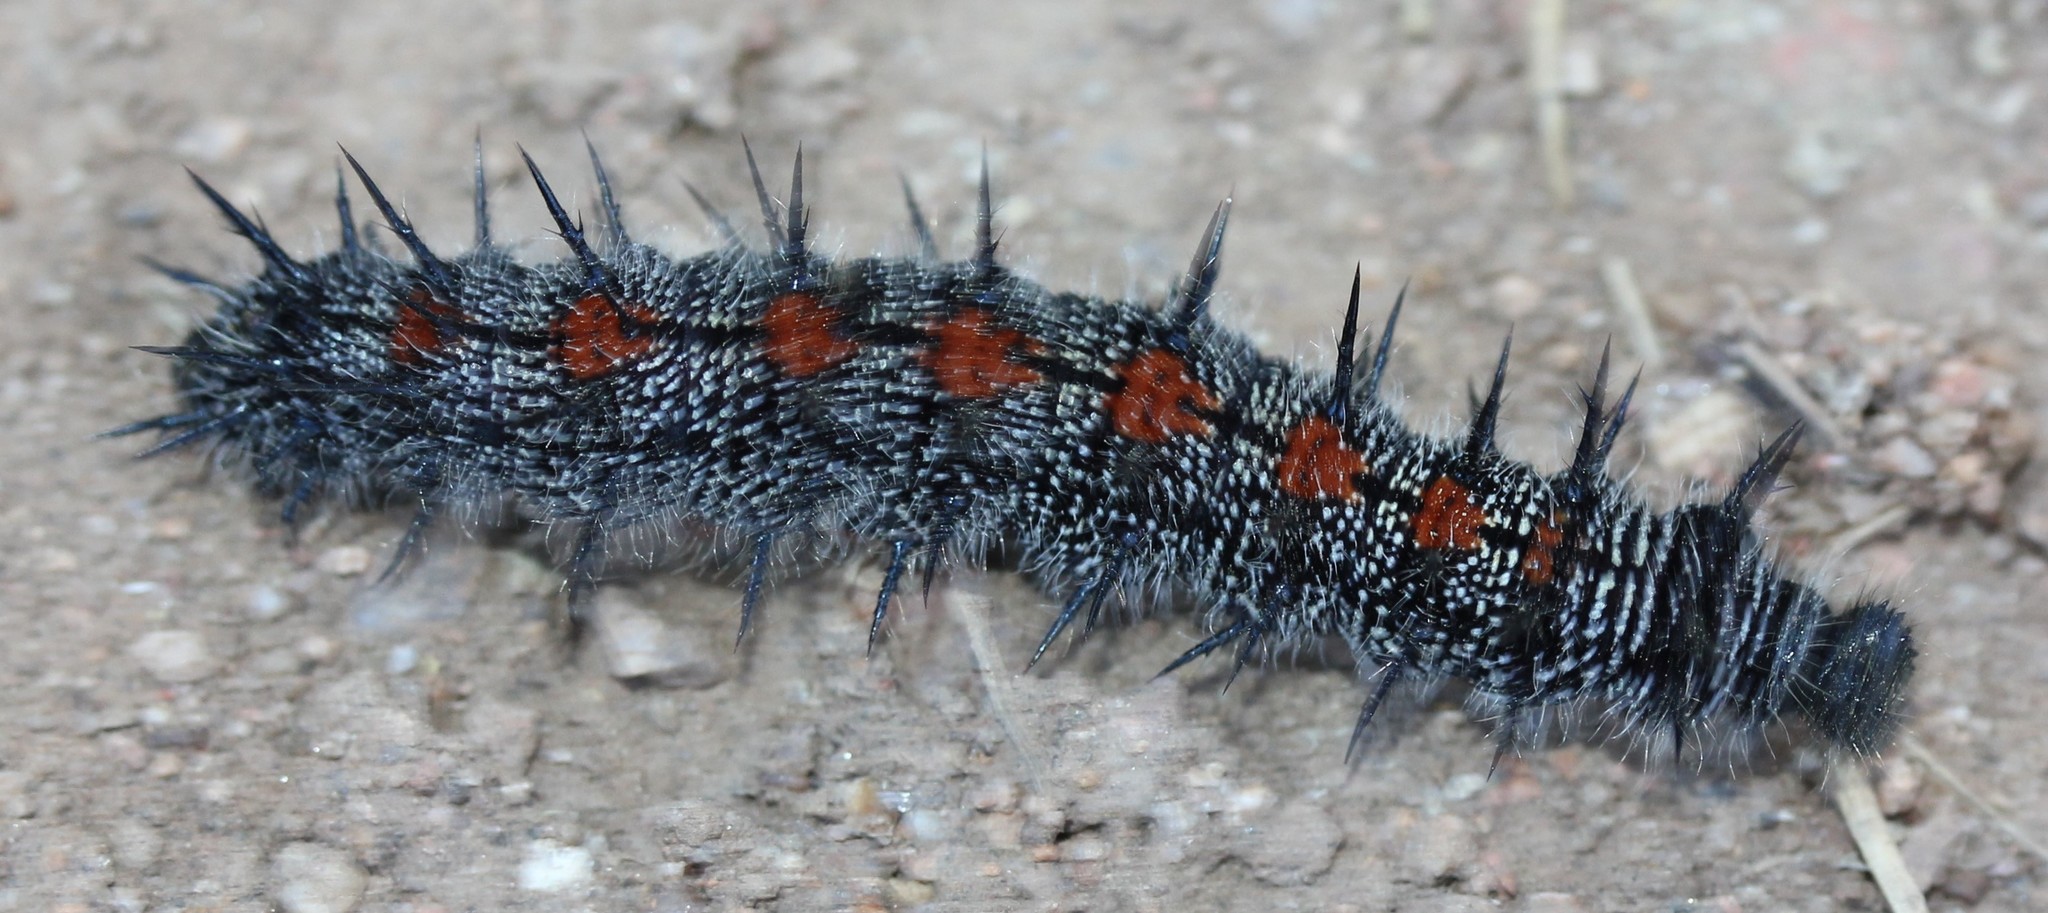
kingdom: Animalia
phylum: Arthropoda
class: Insecta
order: Lepidoptera
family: Nymphalidae
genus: Nymphalis
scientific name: Nymphalis antiopa
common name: Camberwell beauty
